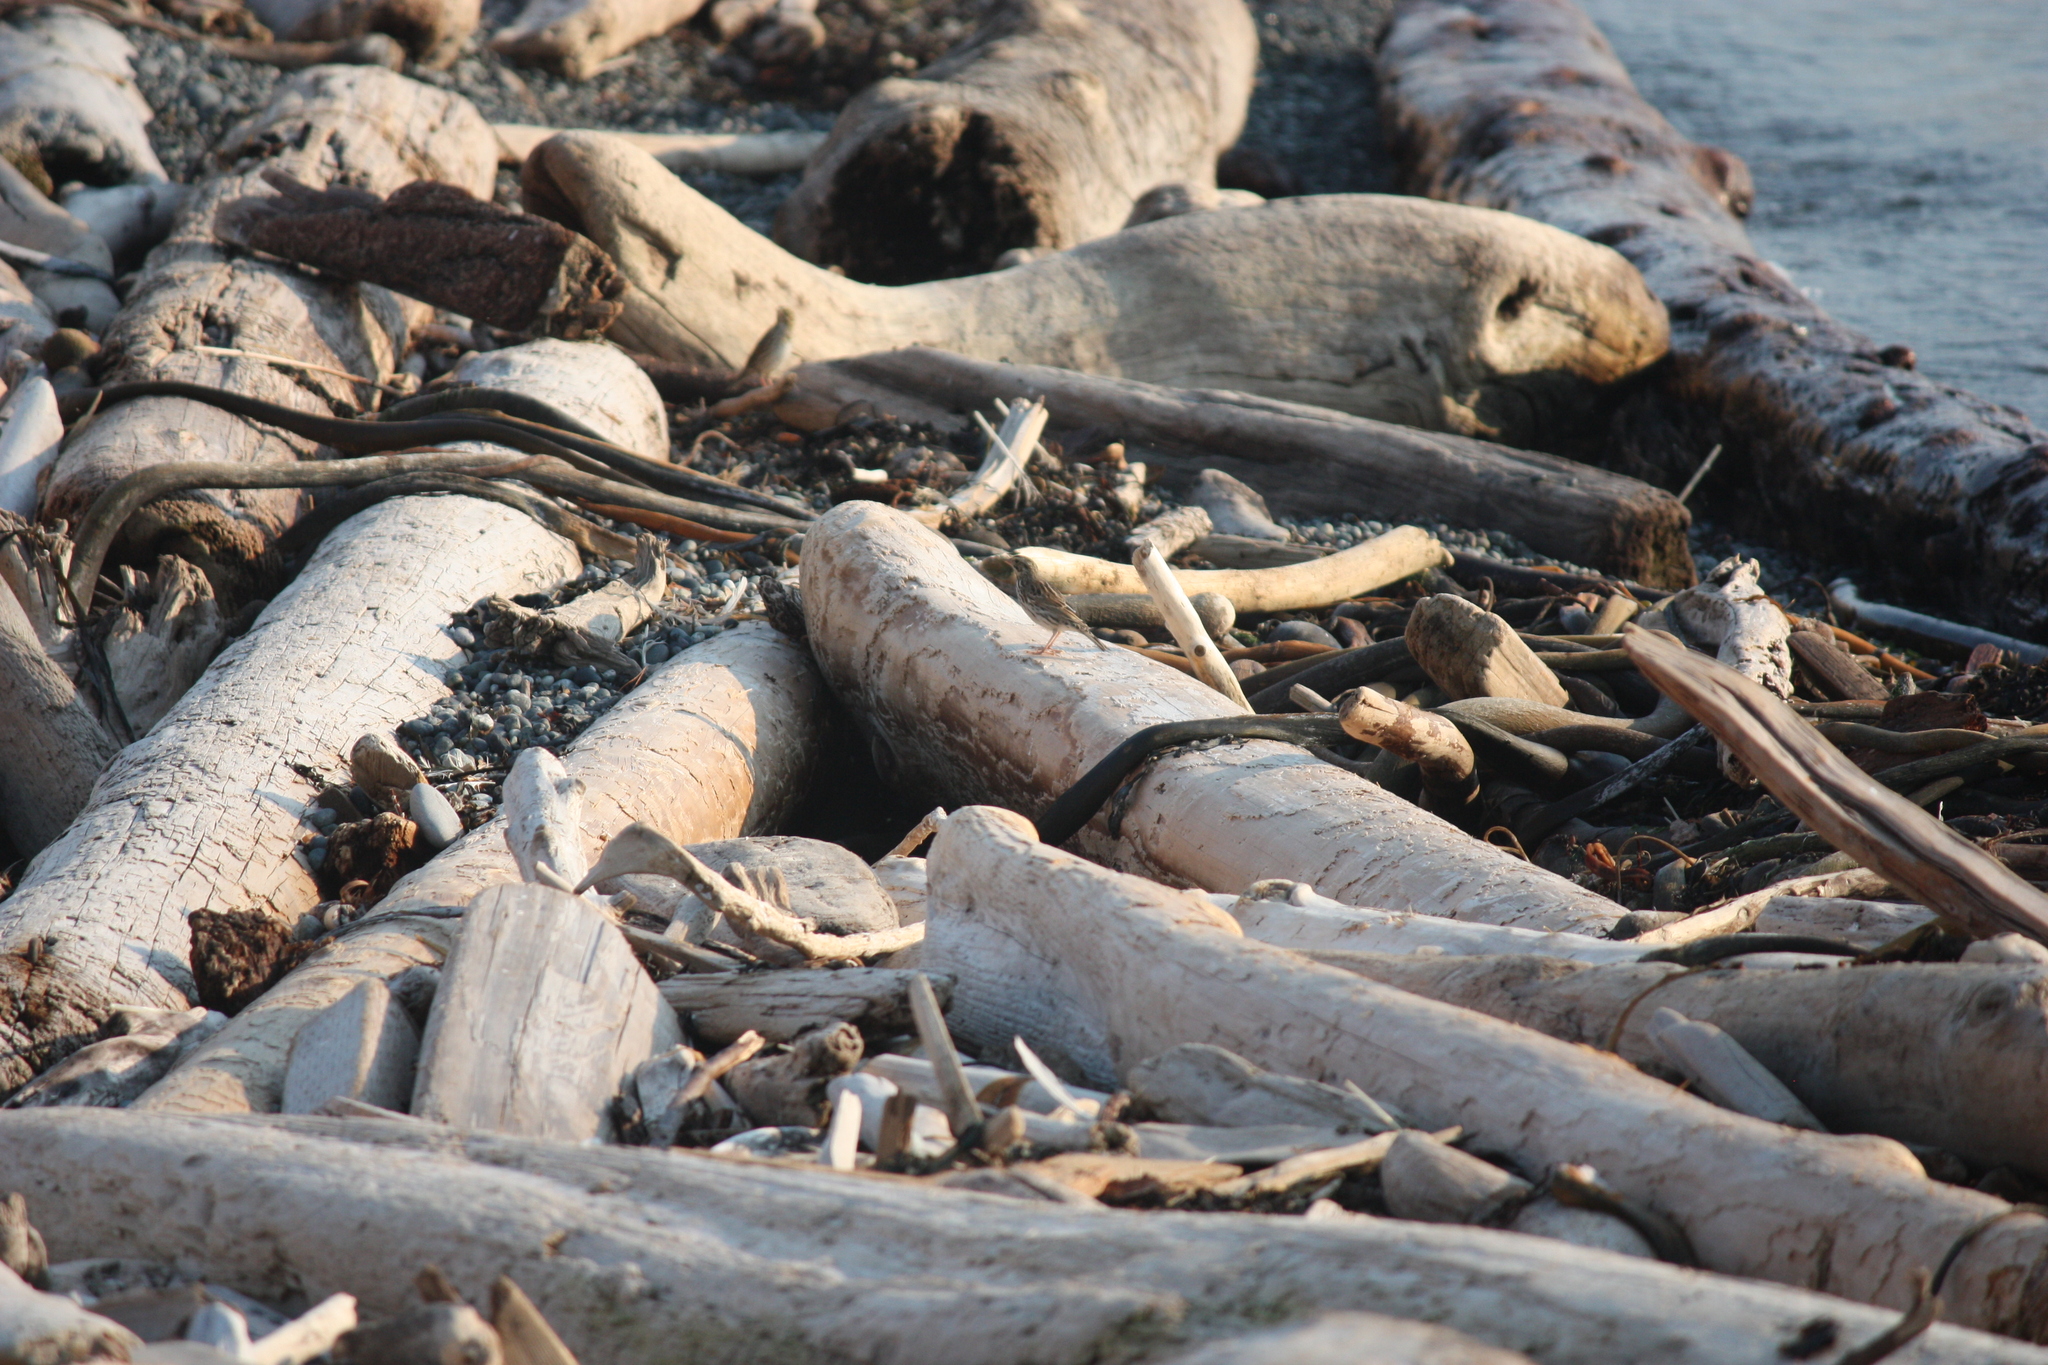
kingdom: Animalia
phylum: Chordata
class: Aves
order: Passeriformes
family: Passerellidae
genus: Passerculus
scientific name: Passerculus sandwichensis
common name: Savannah sparrow
